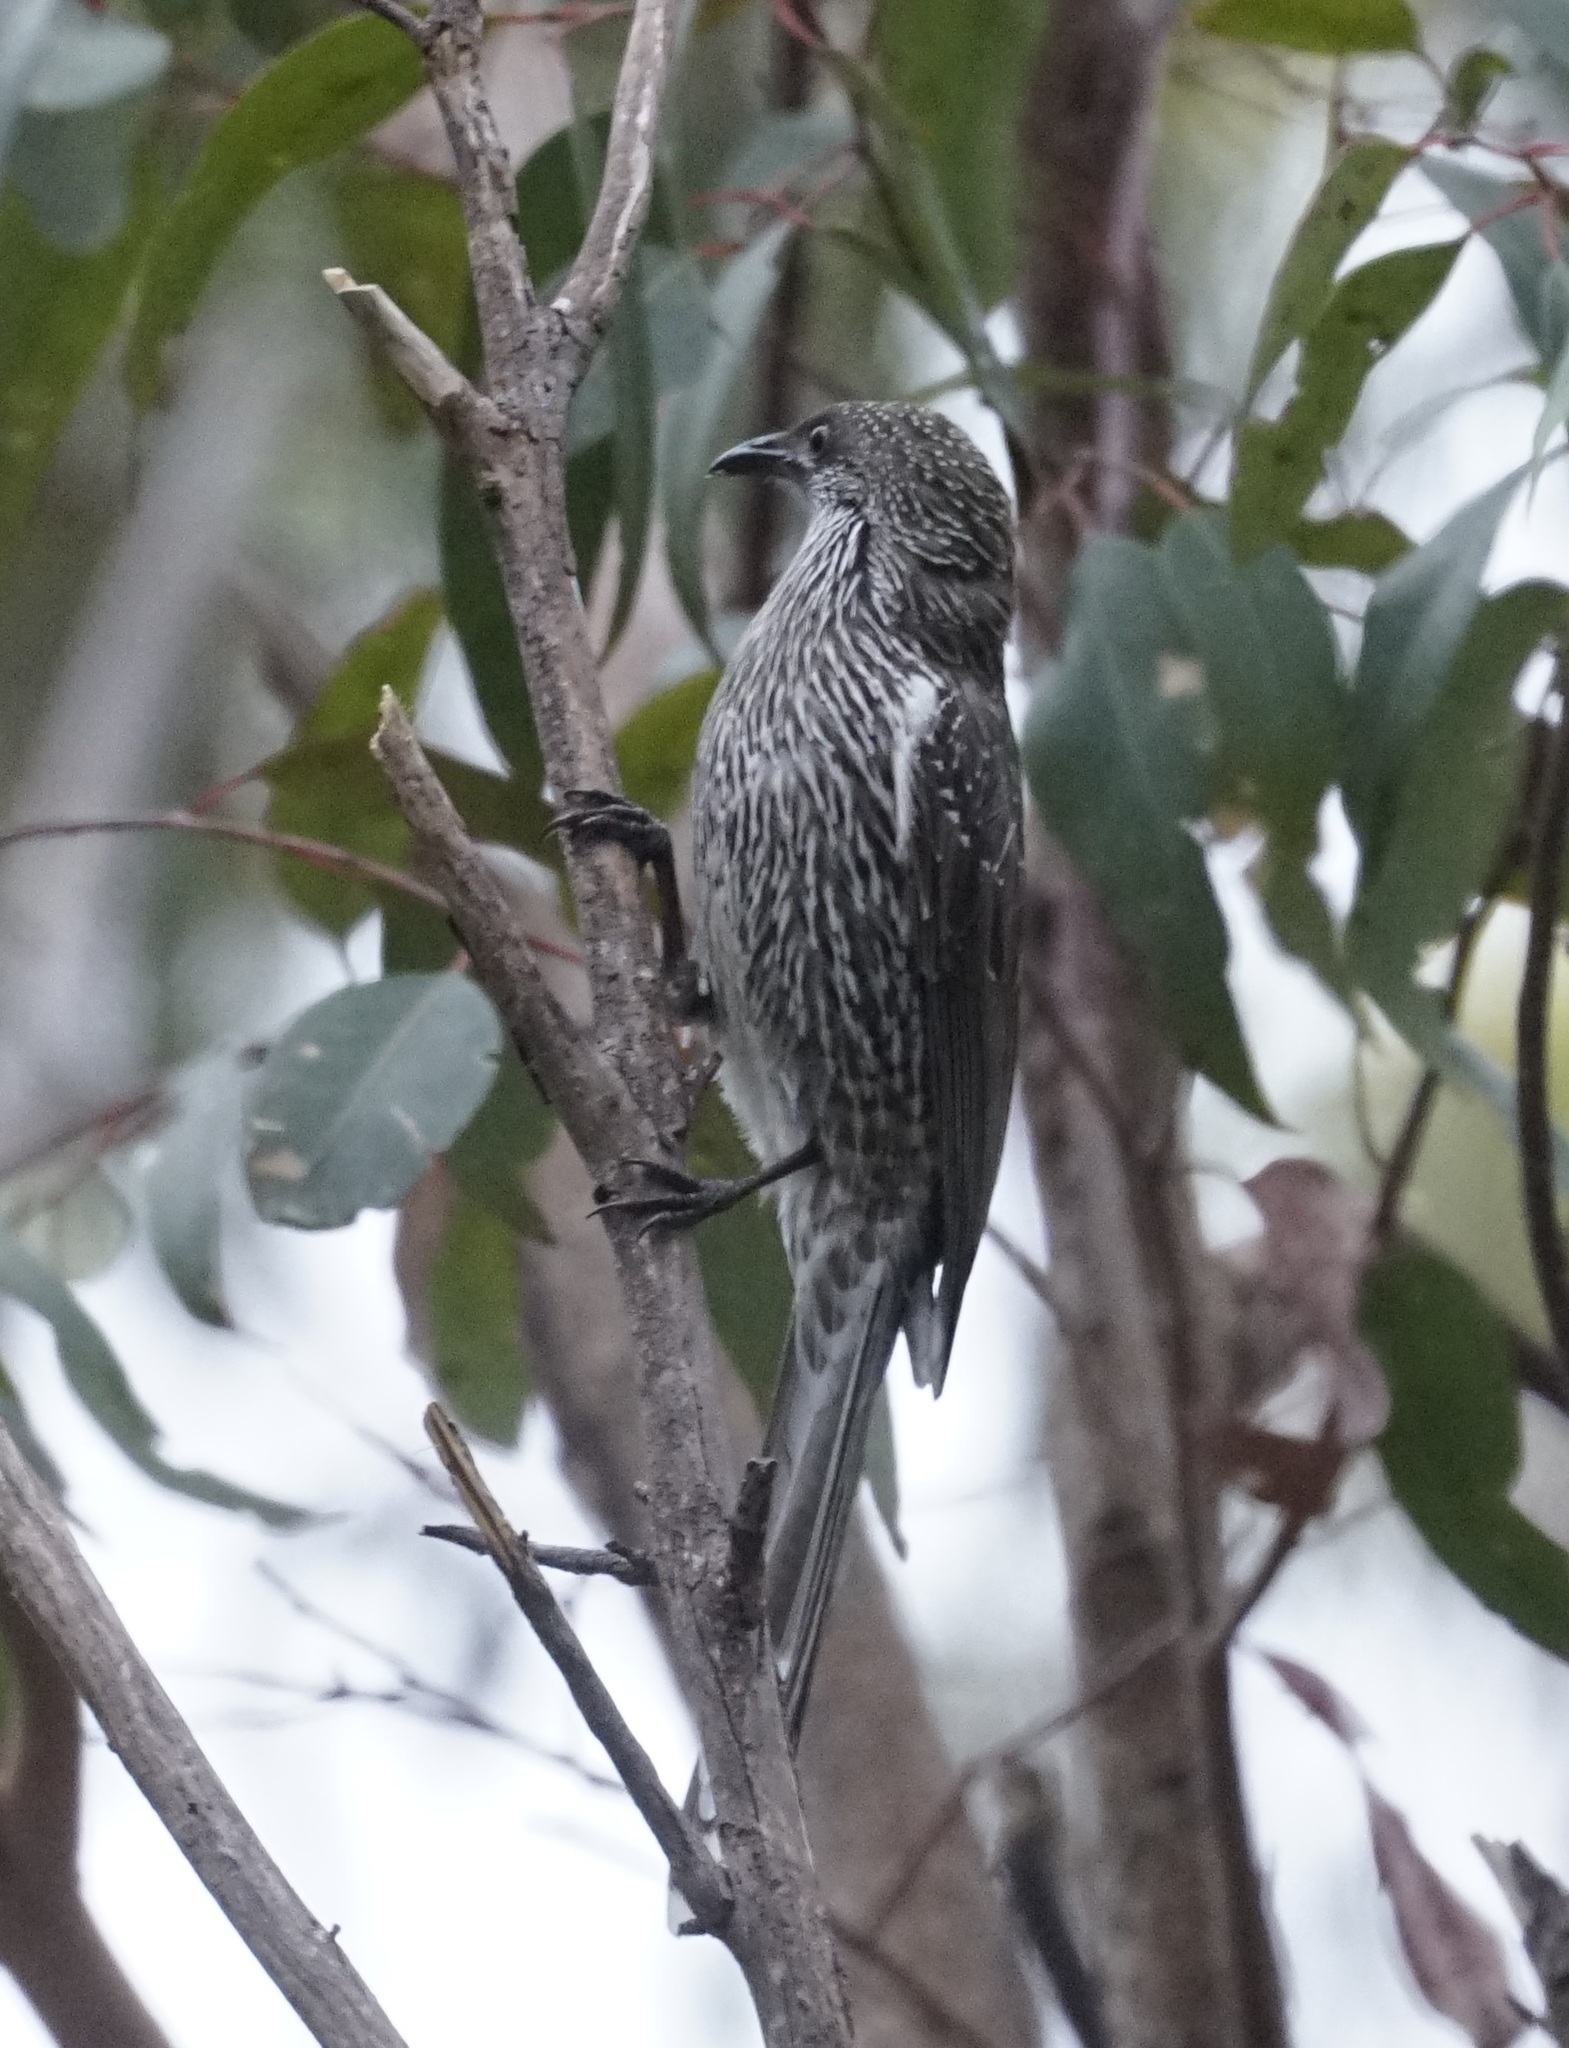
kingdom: Animalia
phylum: Chordata
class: Aves
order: Passeriformes
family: Meliphagidae
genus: Anthochaera
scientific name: Anthochaera chrysoptera
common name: Little wattlebird
